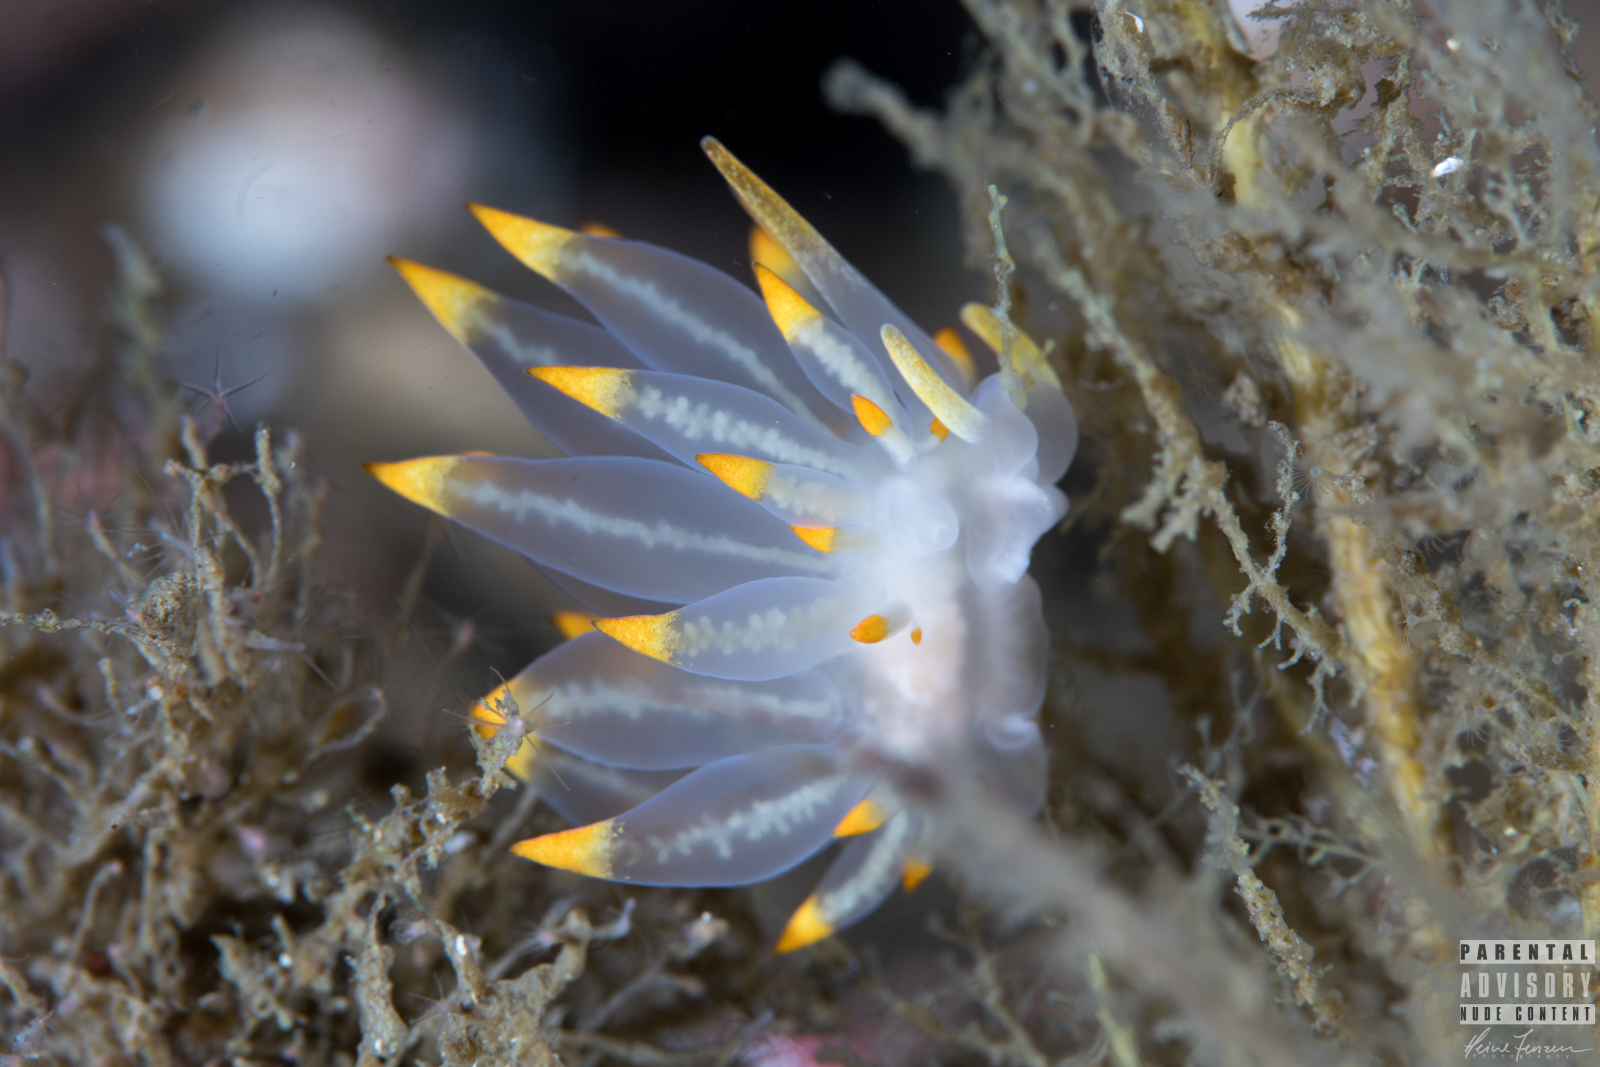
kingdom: Animalia
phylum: Mollusca
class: Gastropoda
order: Nudibranchia
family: Eubranchidae
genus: Amphorina
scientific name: Amphorina farrani
